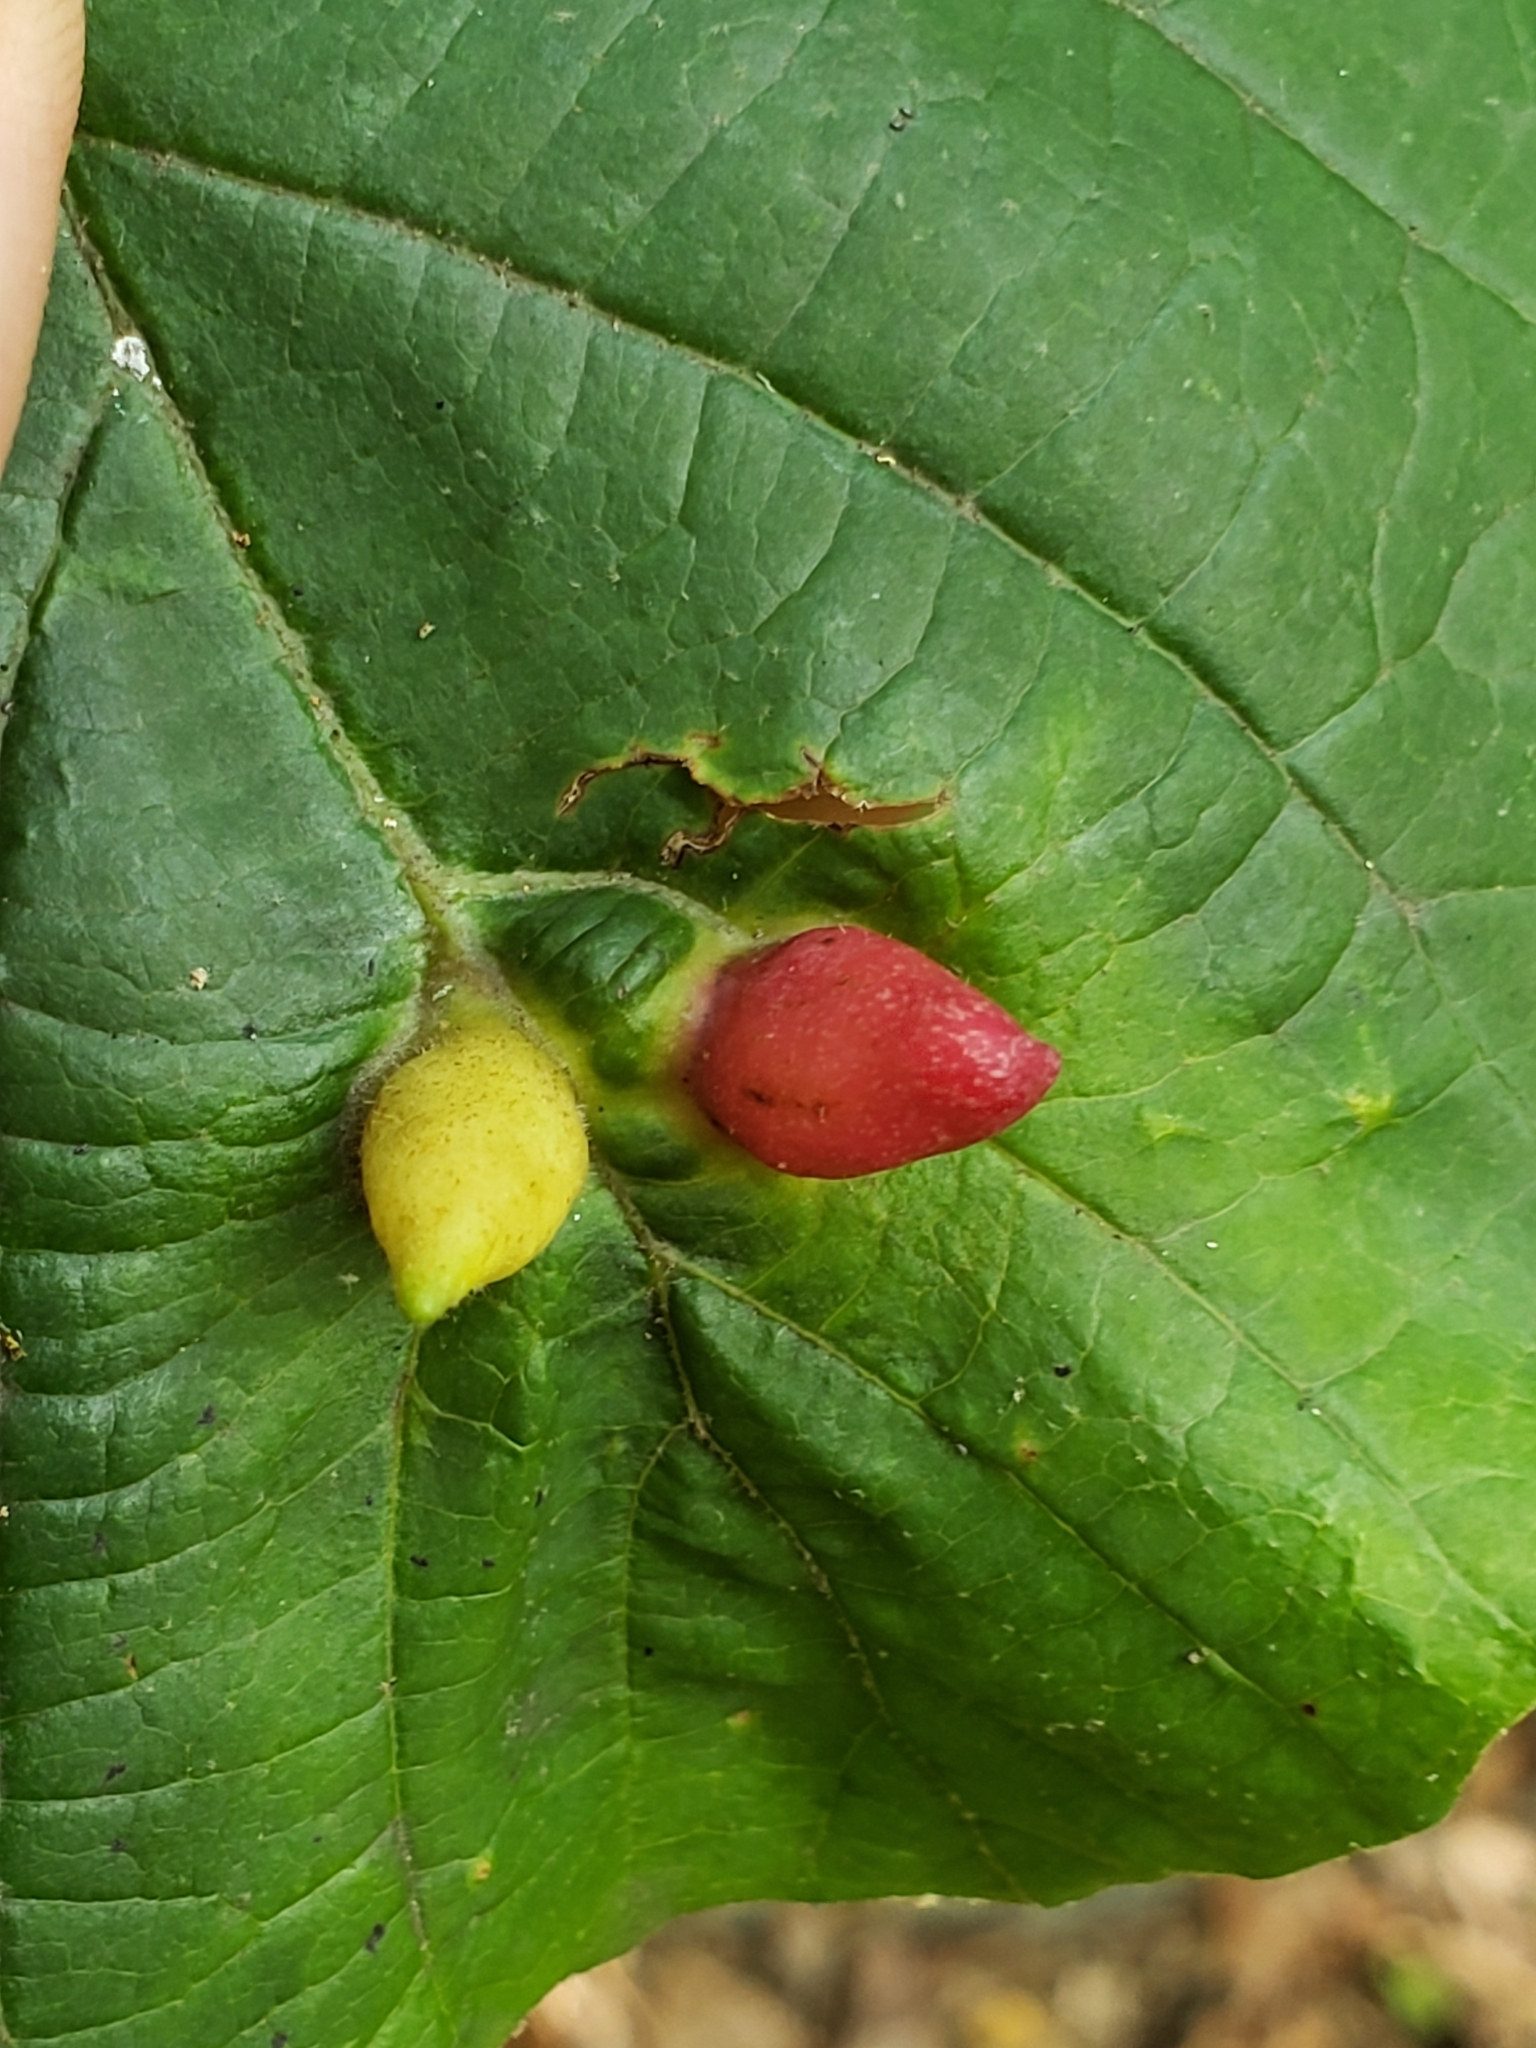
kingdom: Animalia
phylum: Arthropoda
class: Insecta
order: Hemiptera
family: Aphididae
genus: Hormaphis
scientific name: Hormaphis hamamelidis
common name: Witch-hazel cone gall aphid
